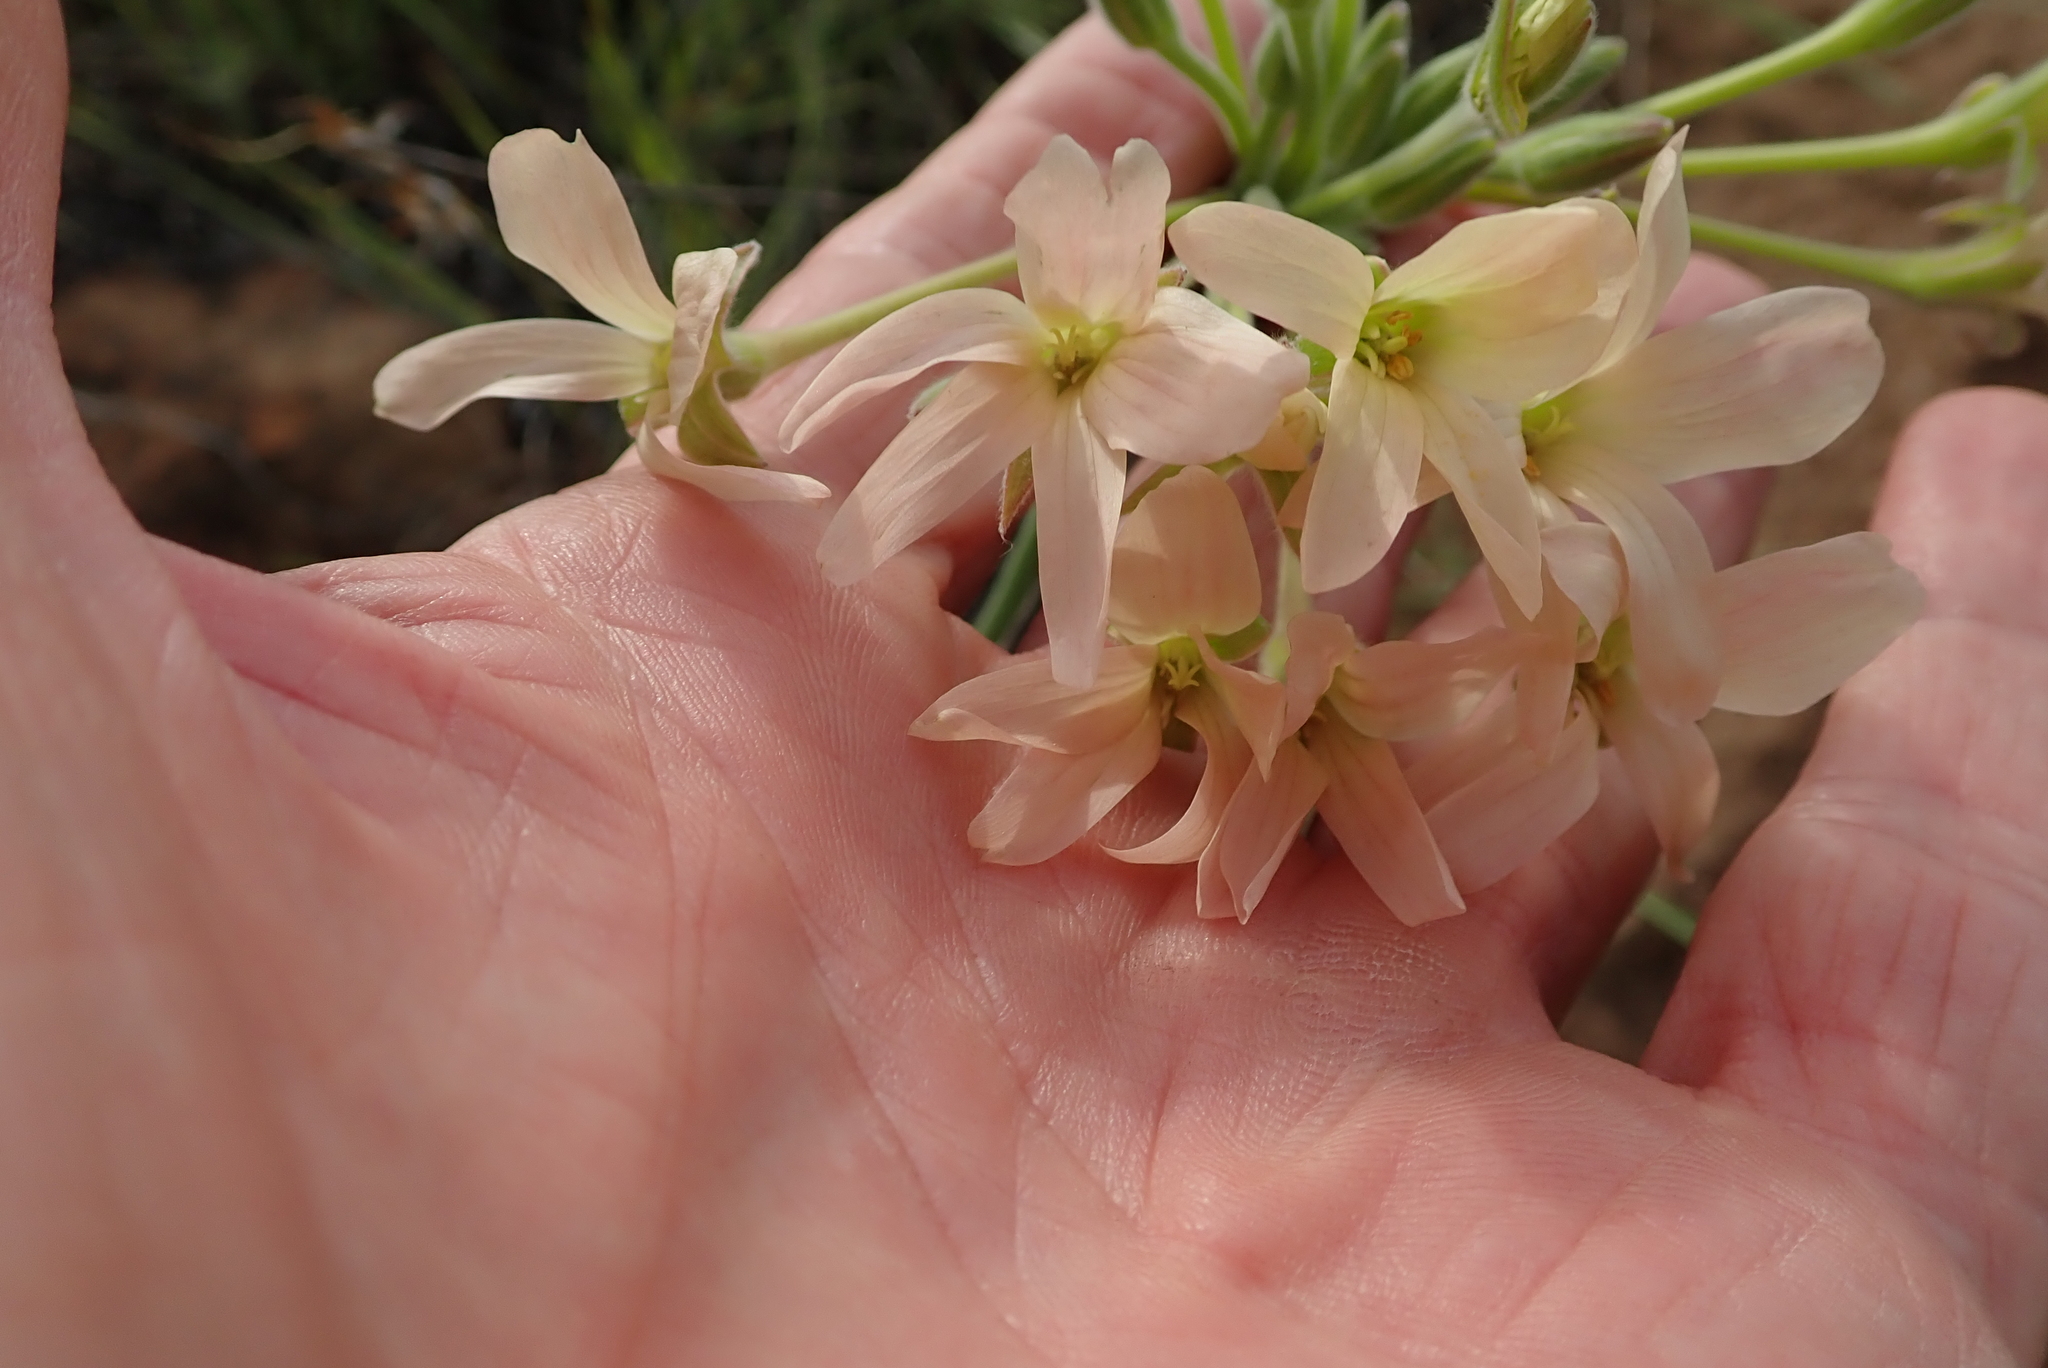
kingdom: Plantae
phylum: Tracheophyta
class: Magnoliopsida
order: Geraniales
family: Geraniaceae
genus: Pelargonium
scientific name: Pelargonium luridum
